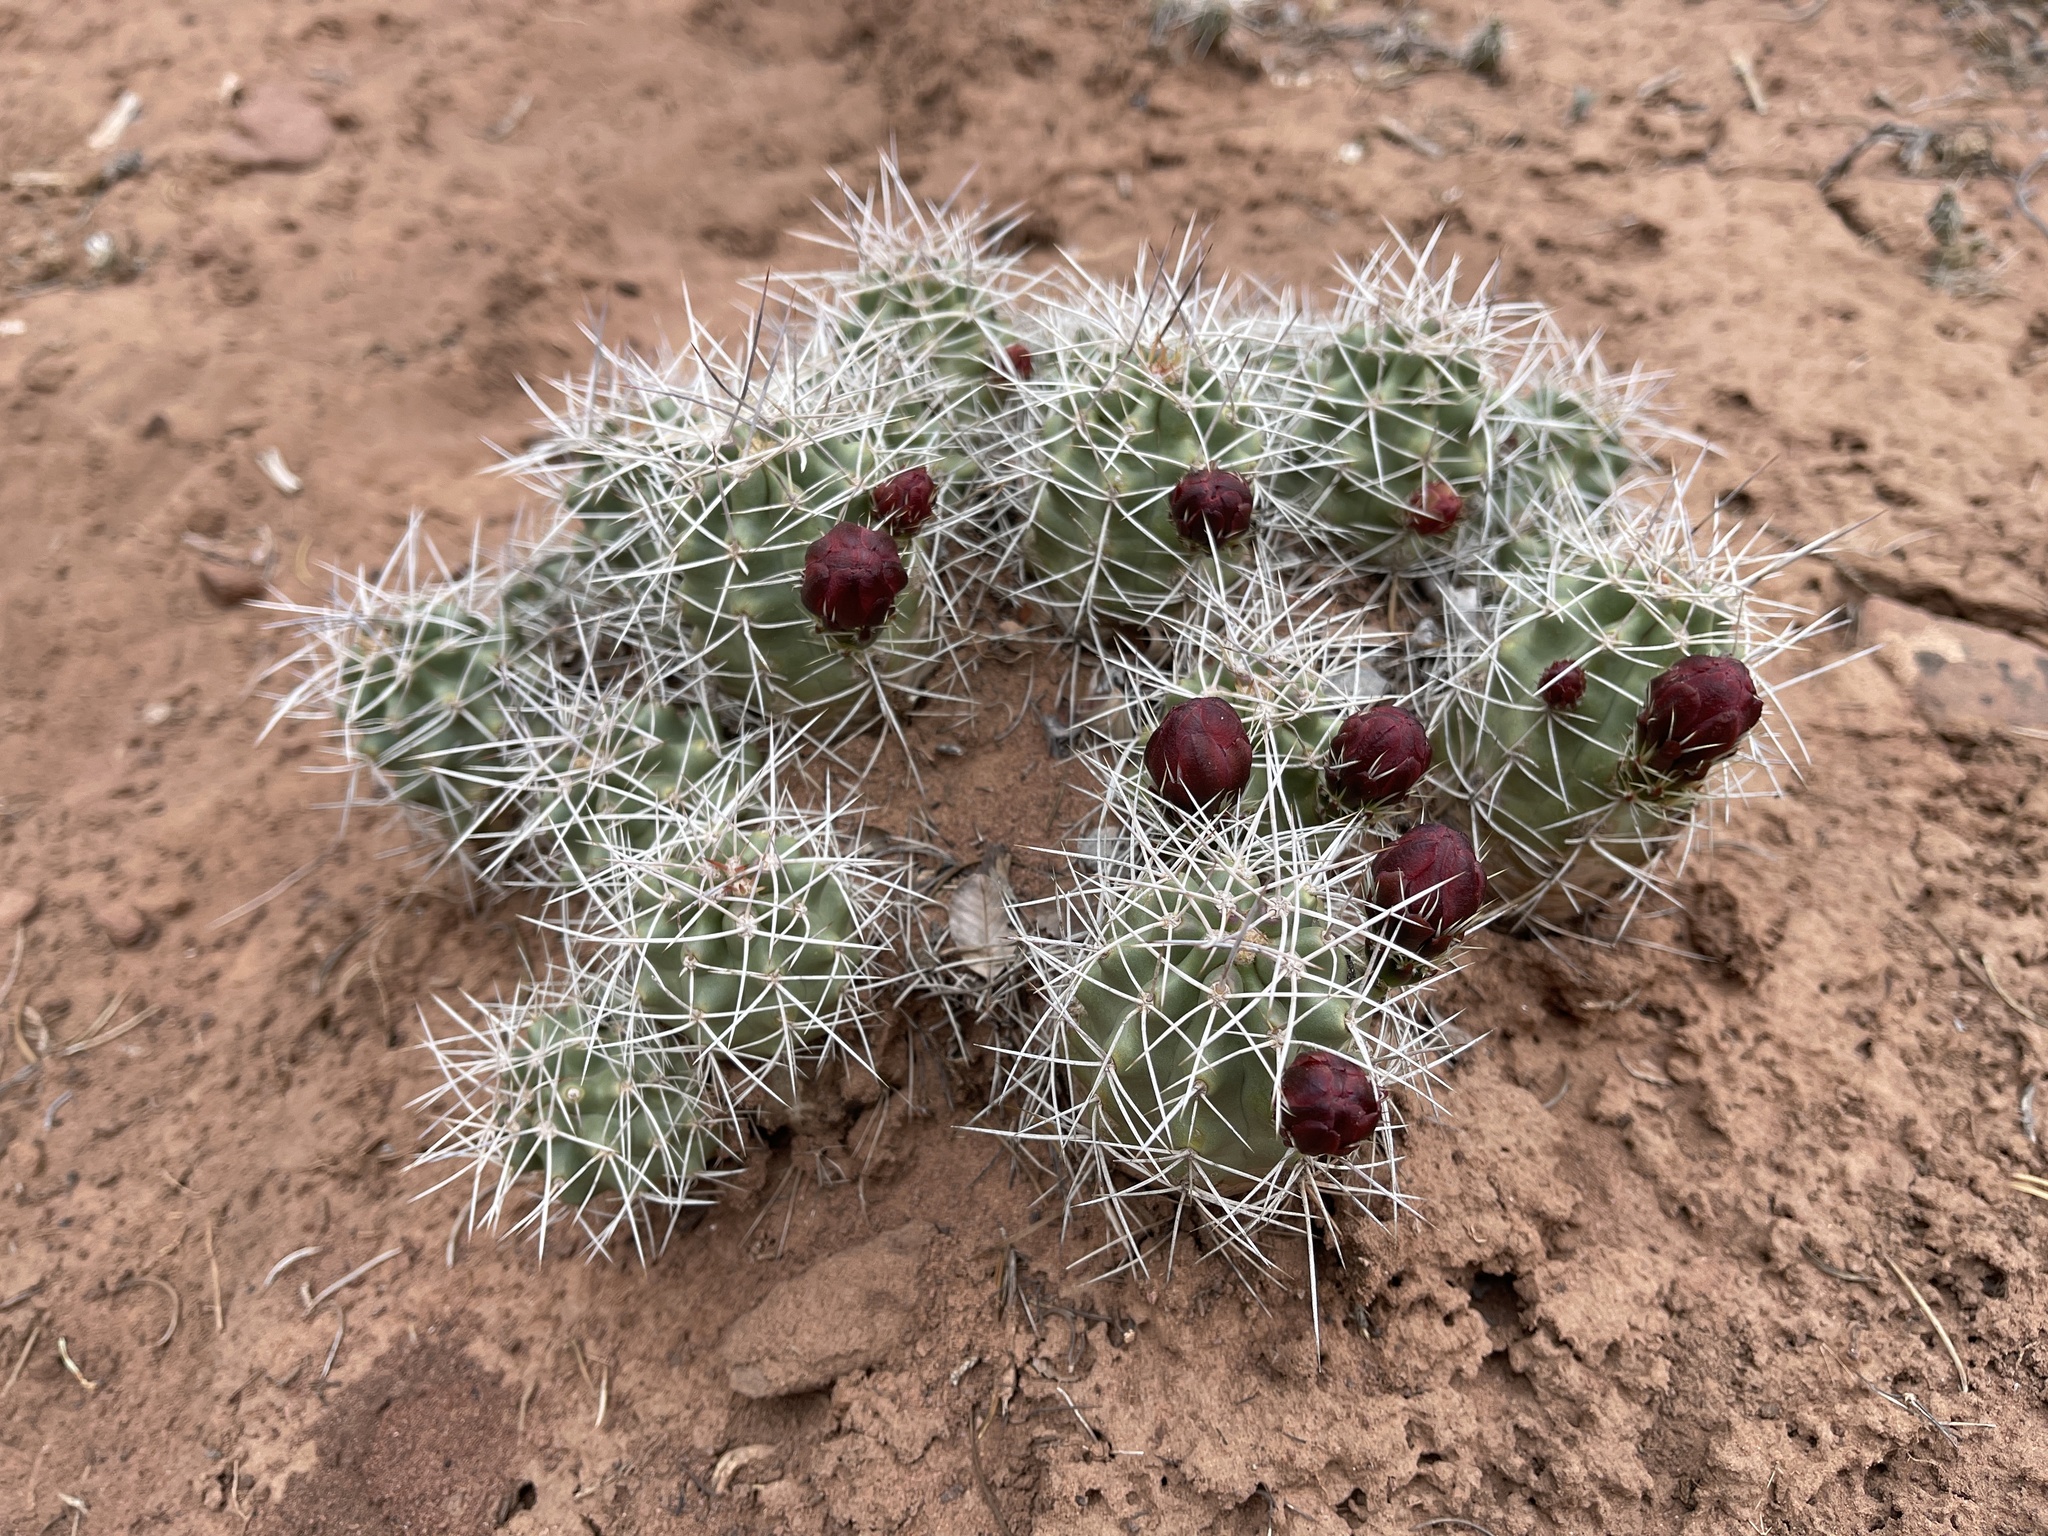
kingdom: Plantae
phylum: Tracheophyta
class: Magnoliopsida
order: Caryophyllales
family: Cactaceae
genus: Echinocereus
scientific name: Echinocereus triglochidiatus
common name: Claretcup hedgehog
